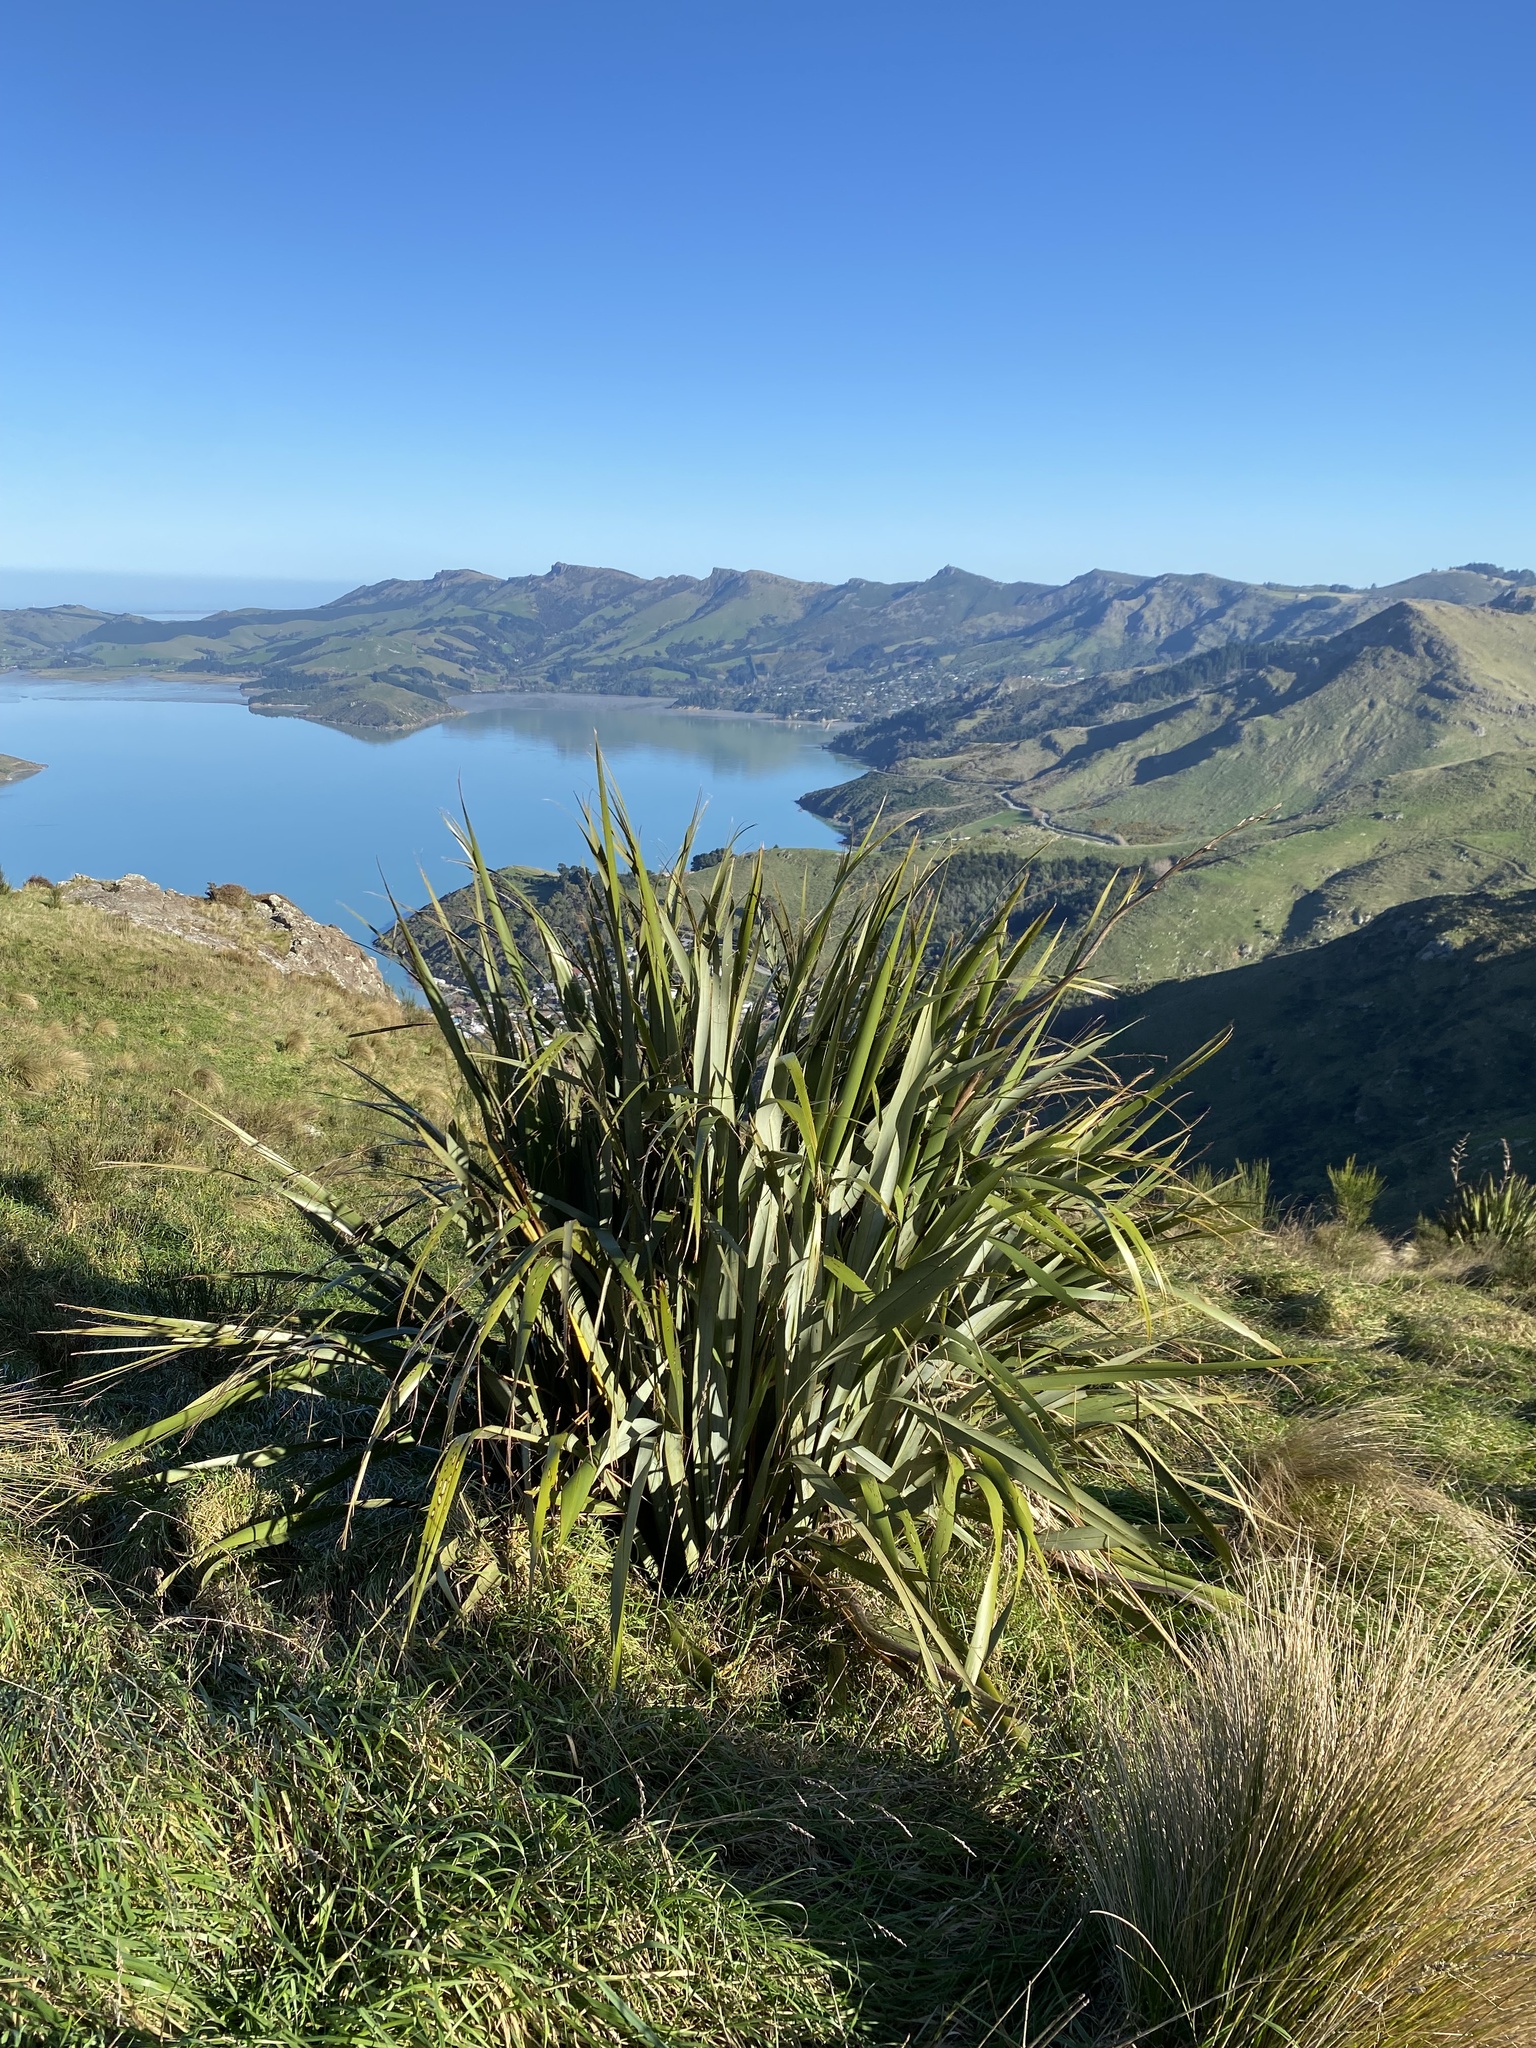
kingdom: Plantae
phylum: Tracheophyta
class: Liliopsida
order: Asparagales
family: Asphodelaceae
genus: Phormium
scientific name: Phormium tenax
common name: New zealand flax
